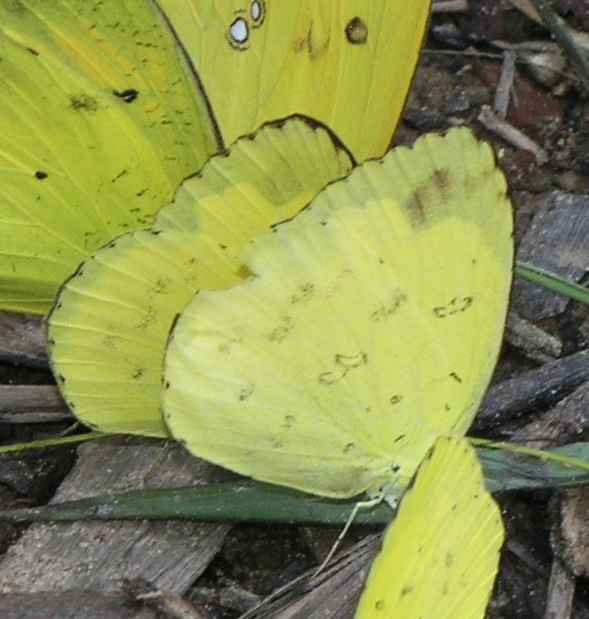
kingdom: Animalia
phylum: Arthropoda
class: Insecta
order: Lepidoptera
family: Pieridae
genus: Eurema
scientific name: Eurema hecabe
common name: Pale grass yellow
